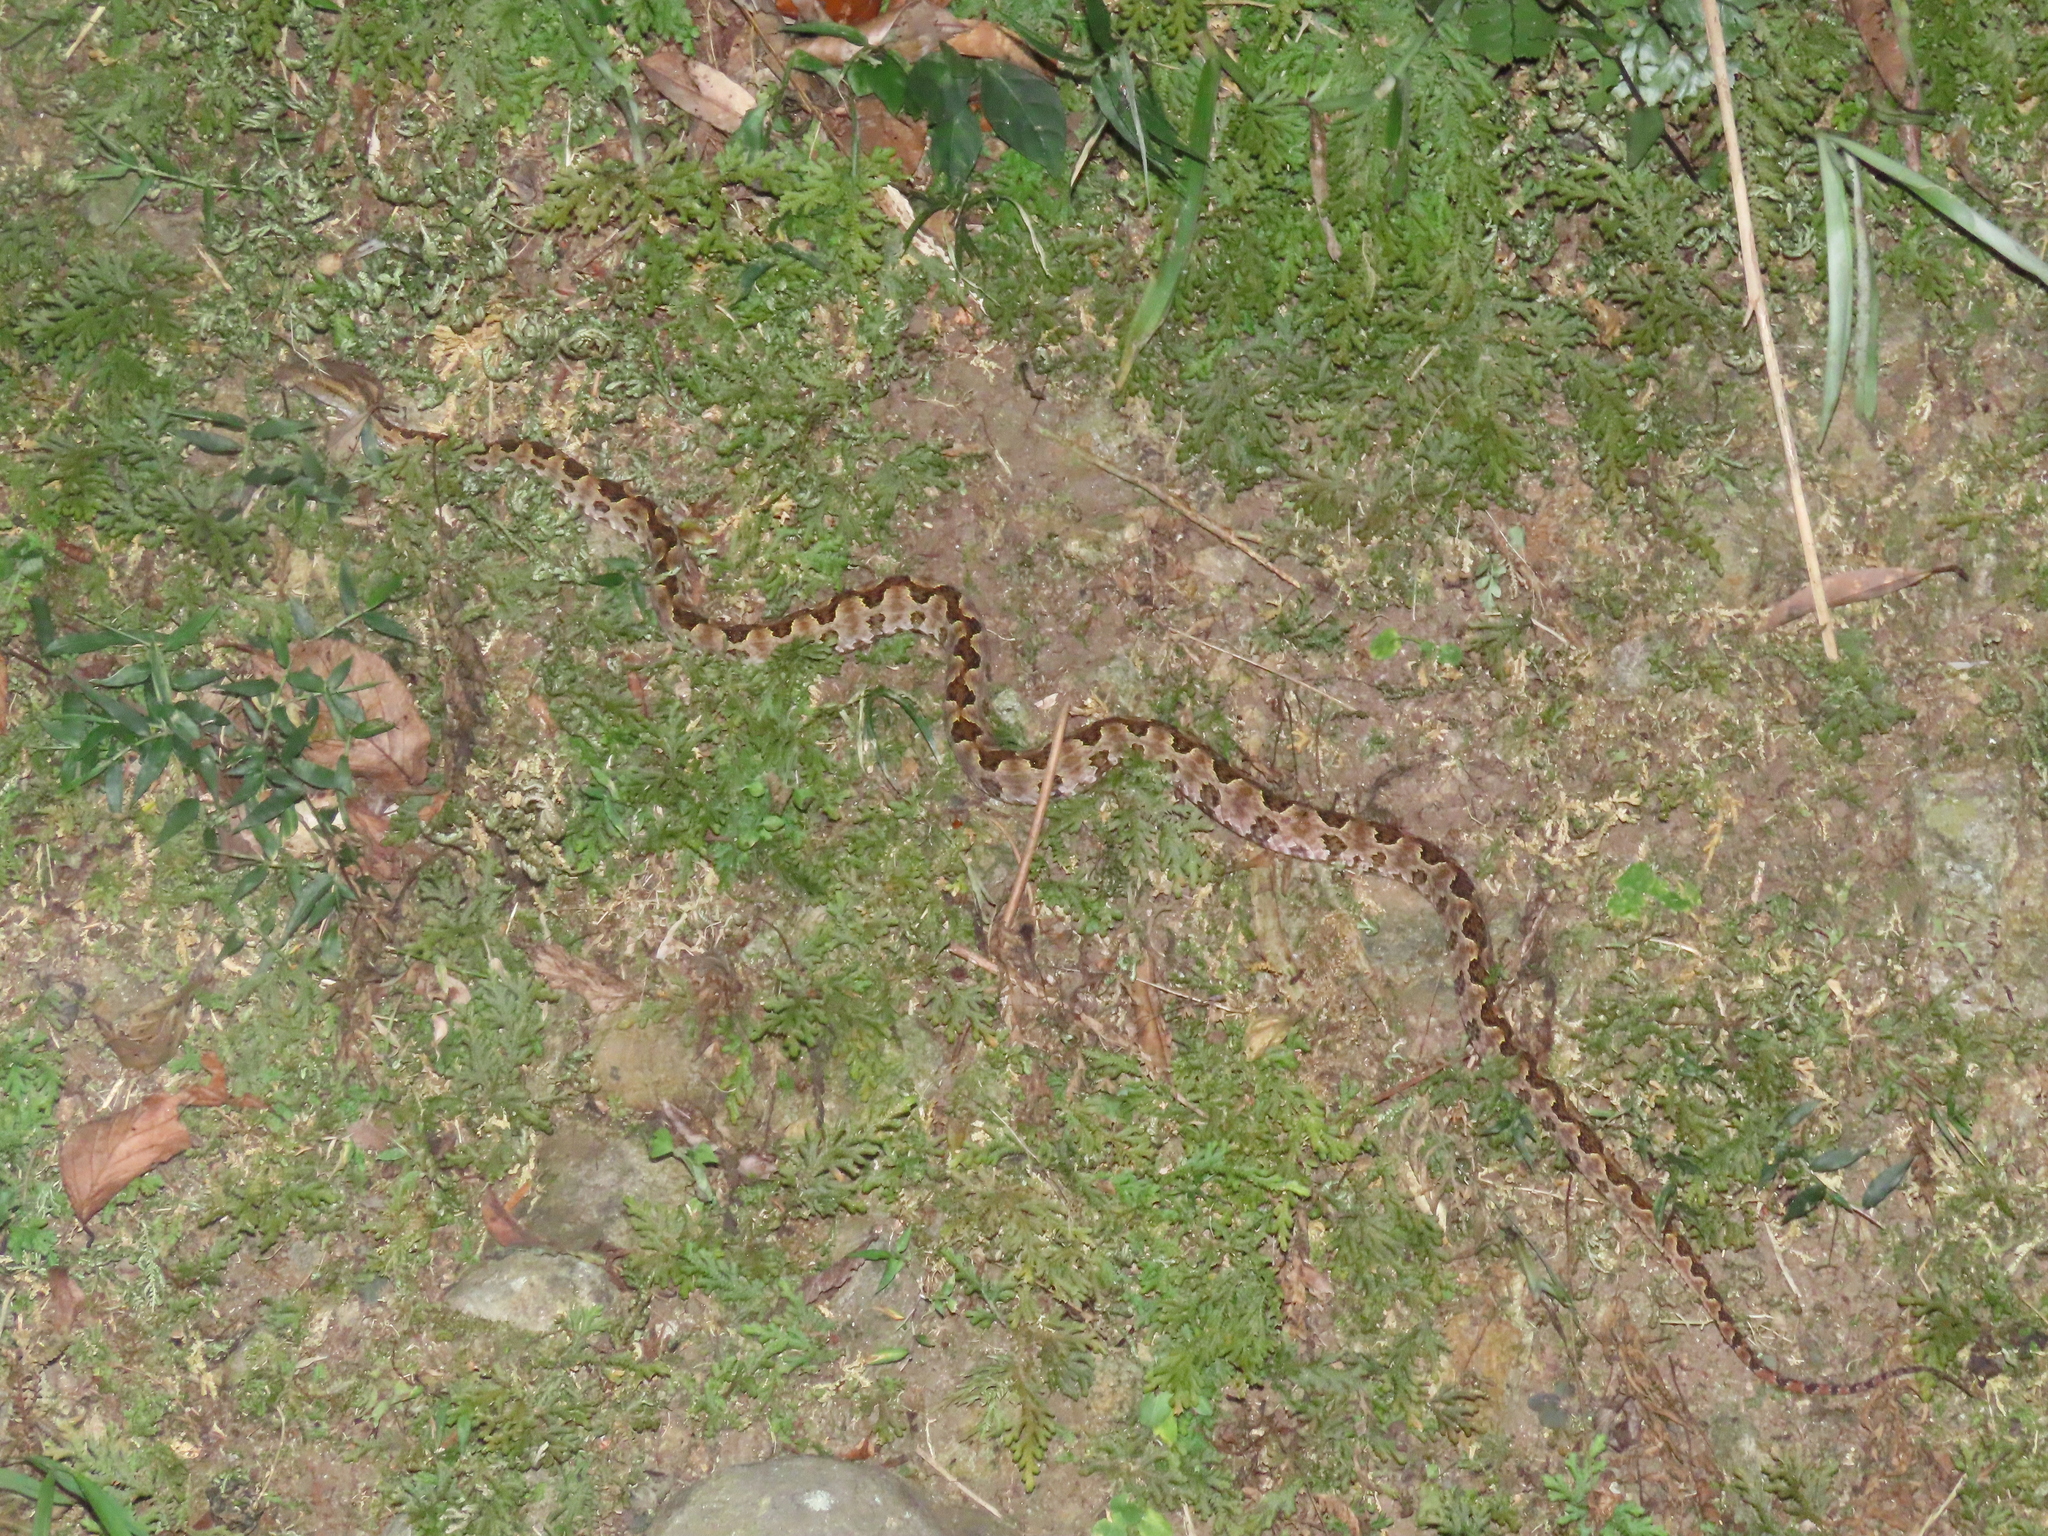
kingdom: Animalia
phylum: Chordata
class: Squamata
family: Viperidae
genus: Protobothrops
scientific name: Protobothrops mucrosquamatus
